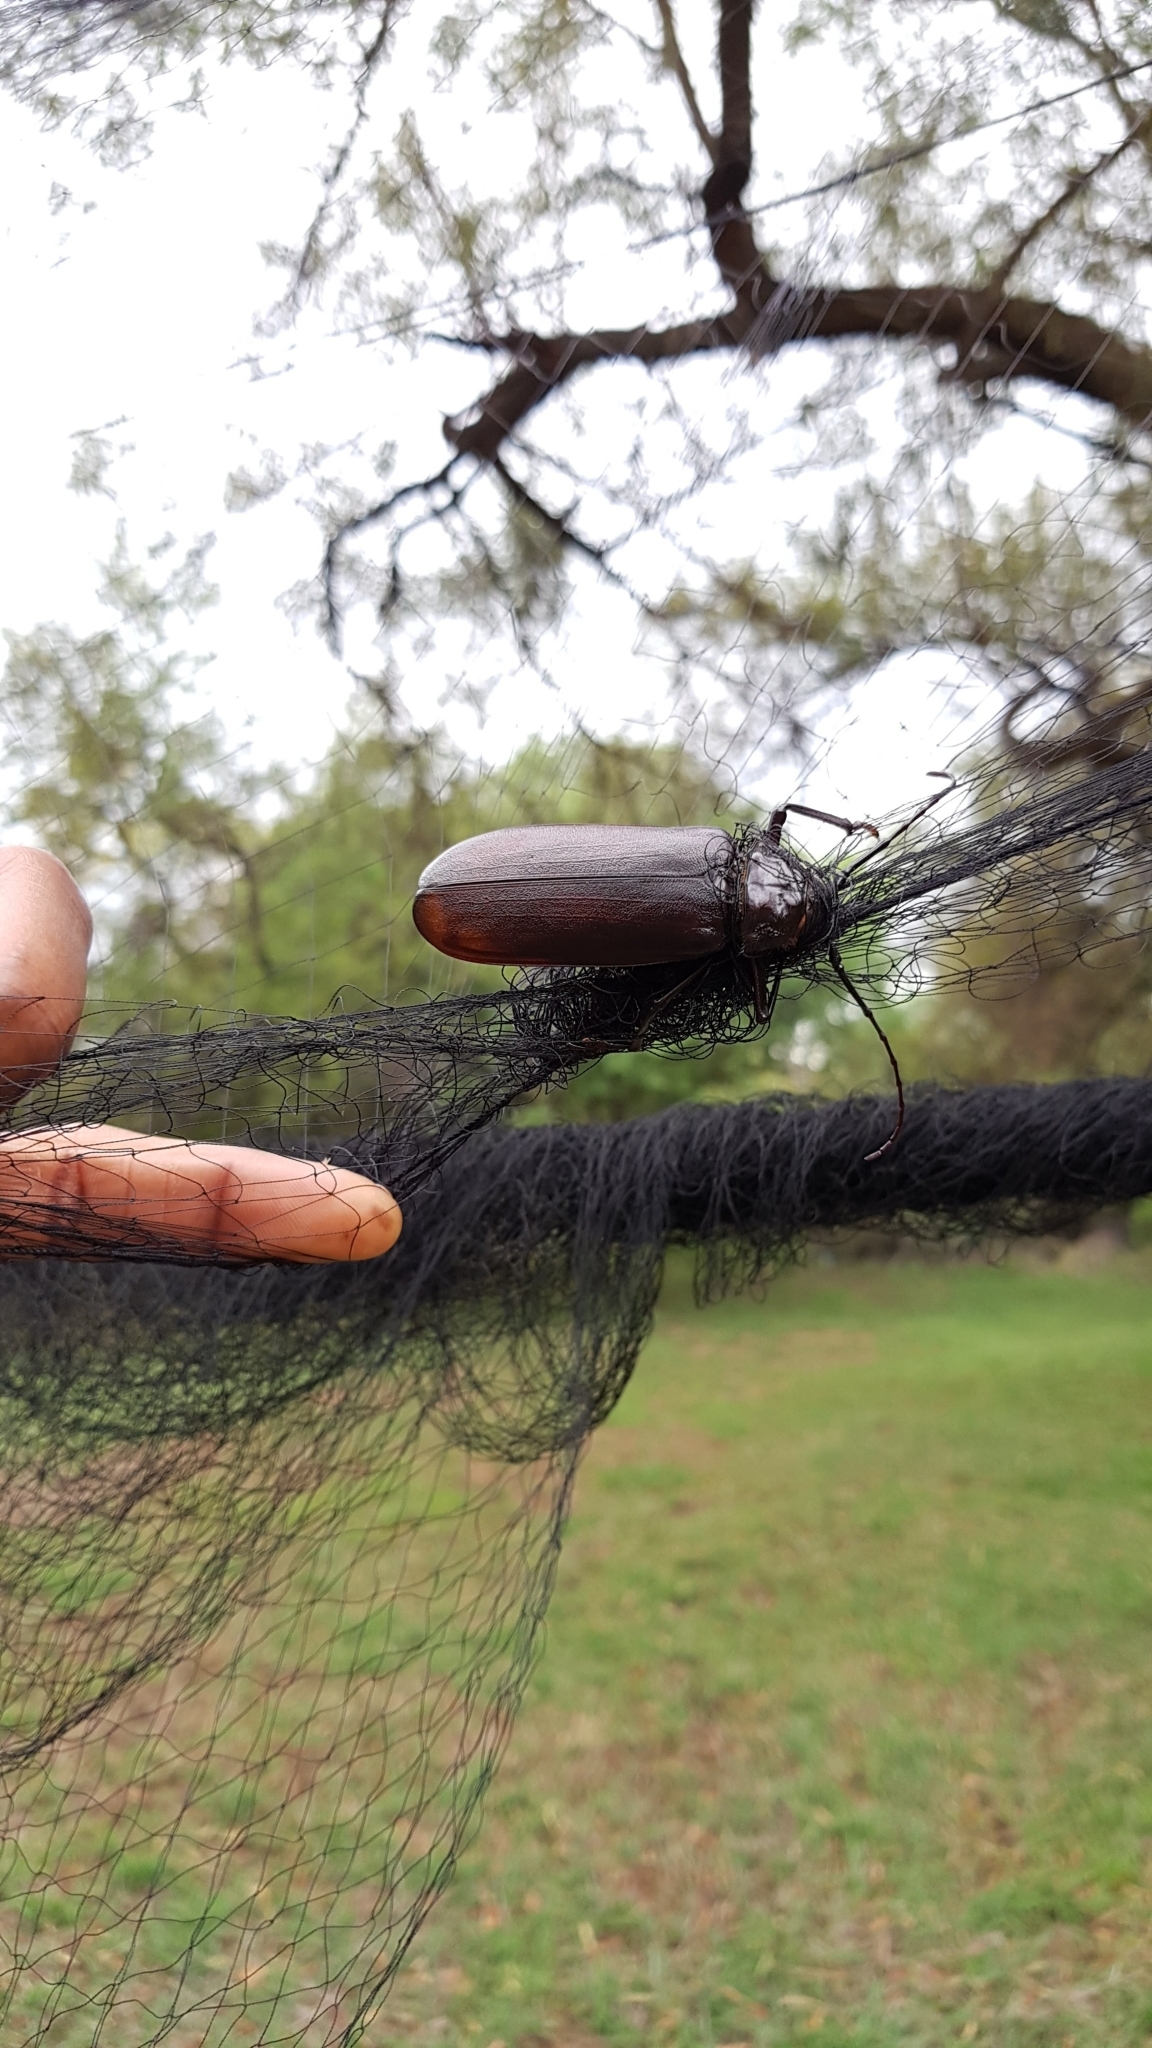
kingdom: Animalia
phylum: Arthropoda
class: Insecta
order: Coleoptera
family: Cerambycidae
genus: Macrotoma
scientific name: Macrotoma palmata
